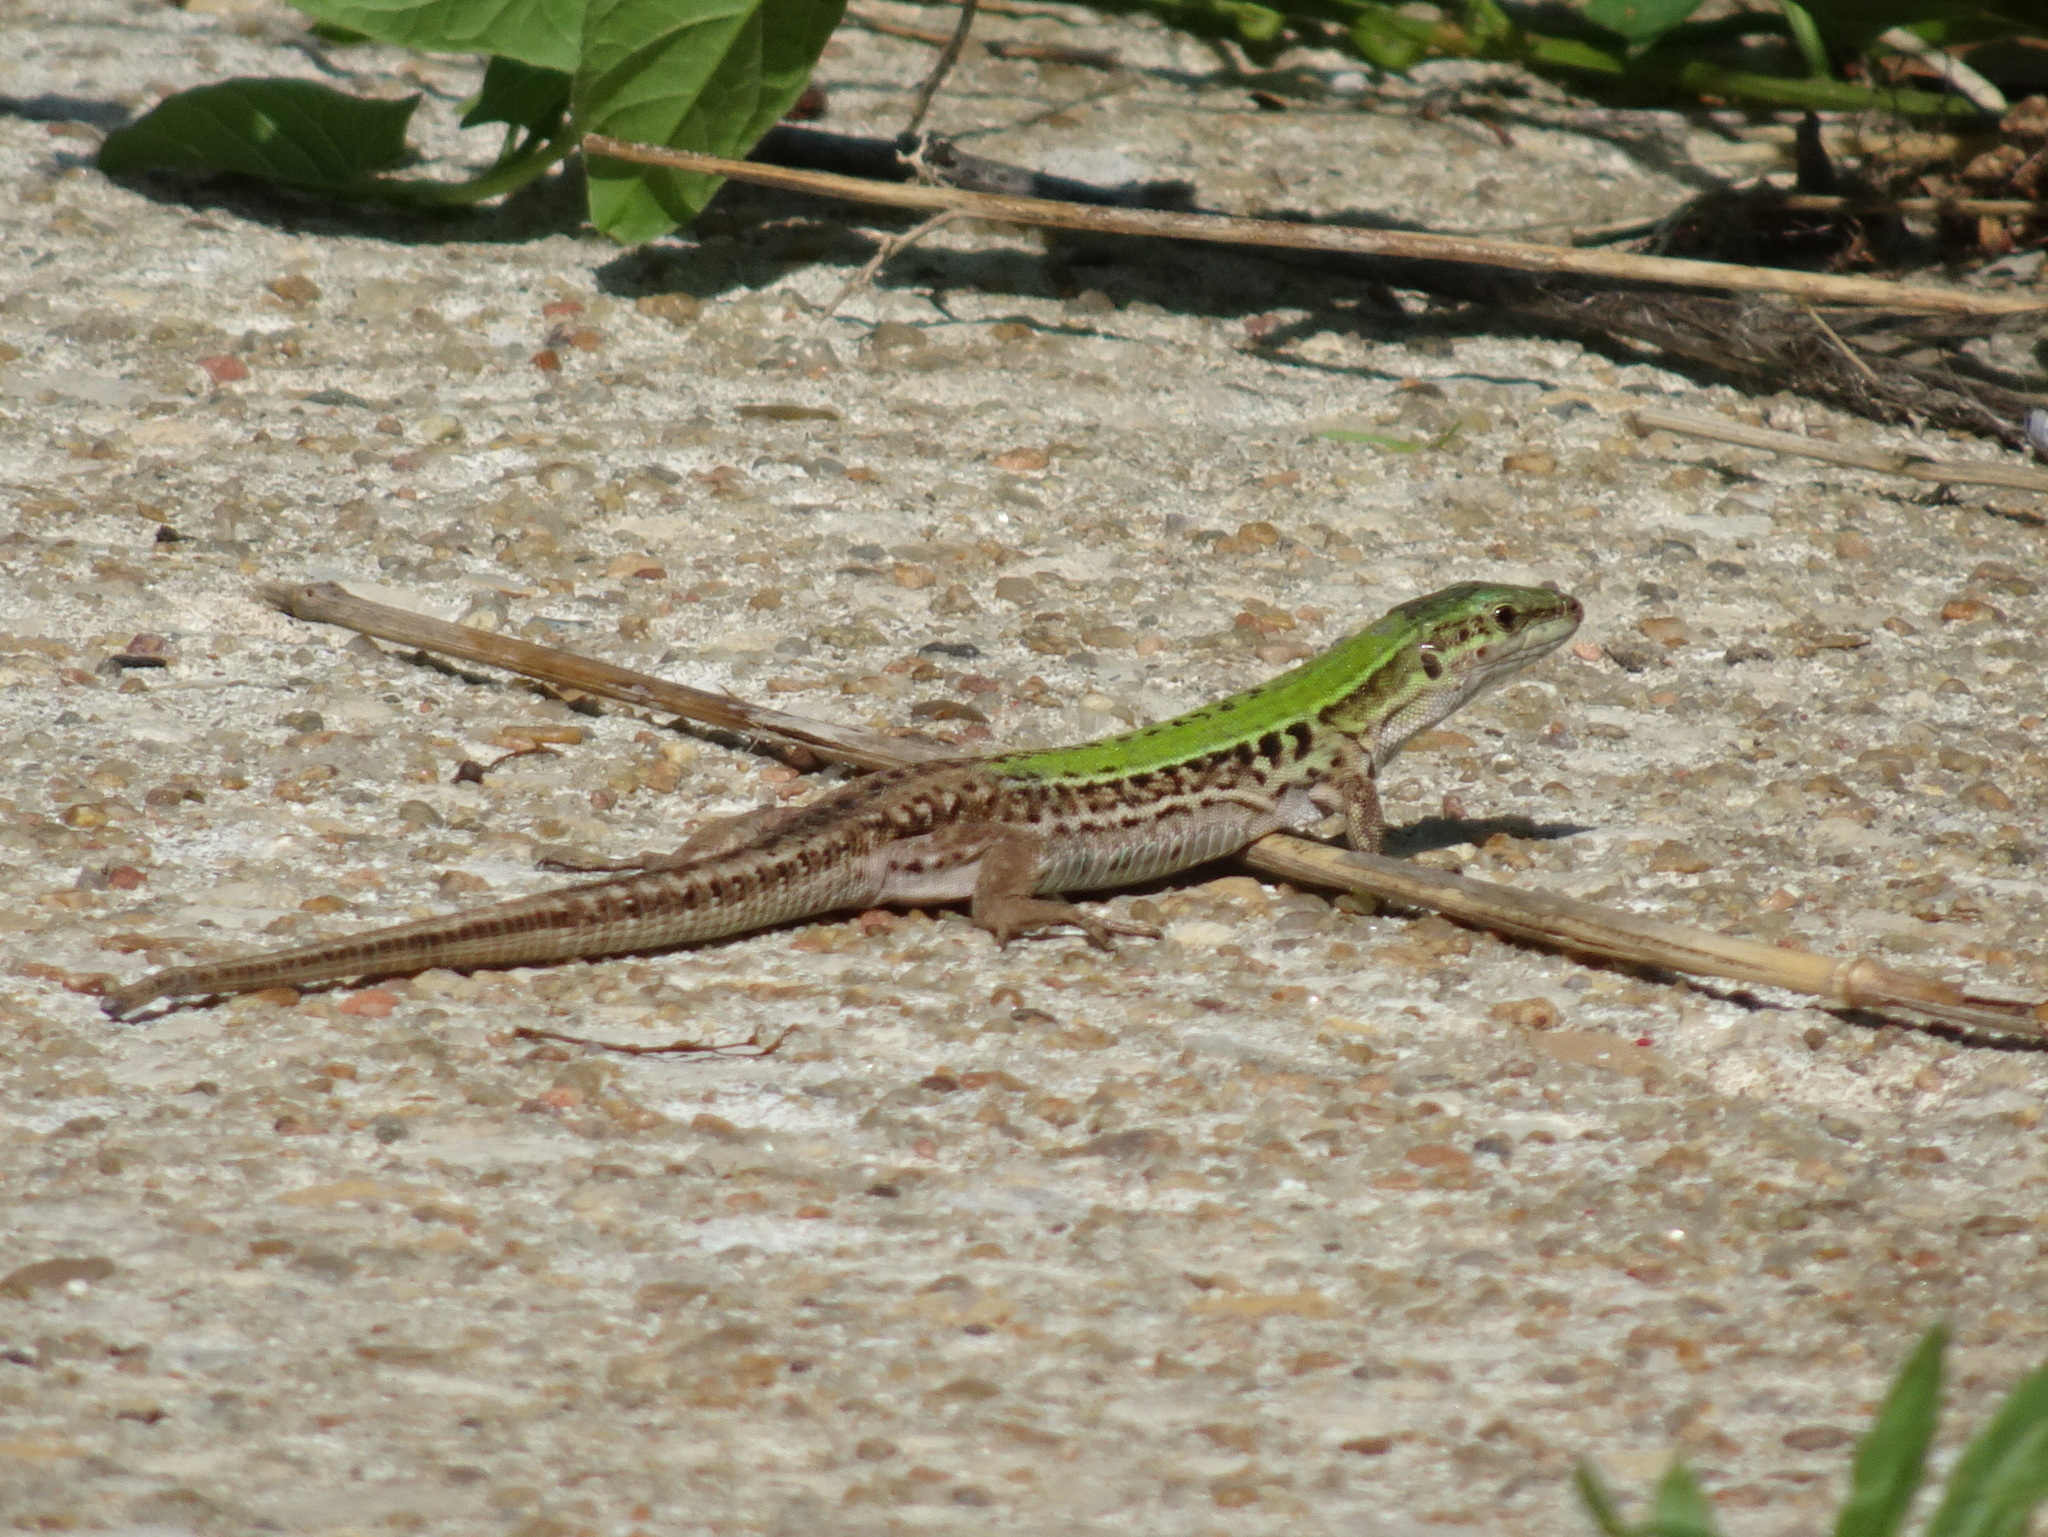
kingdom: Animalia
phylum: Chordata
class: Squamata
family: Lacertidae
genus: Podarcis
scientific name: Podarcis siculus
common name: Italian wall lizard
